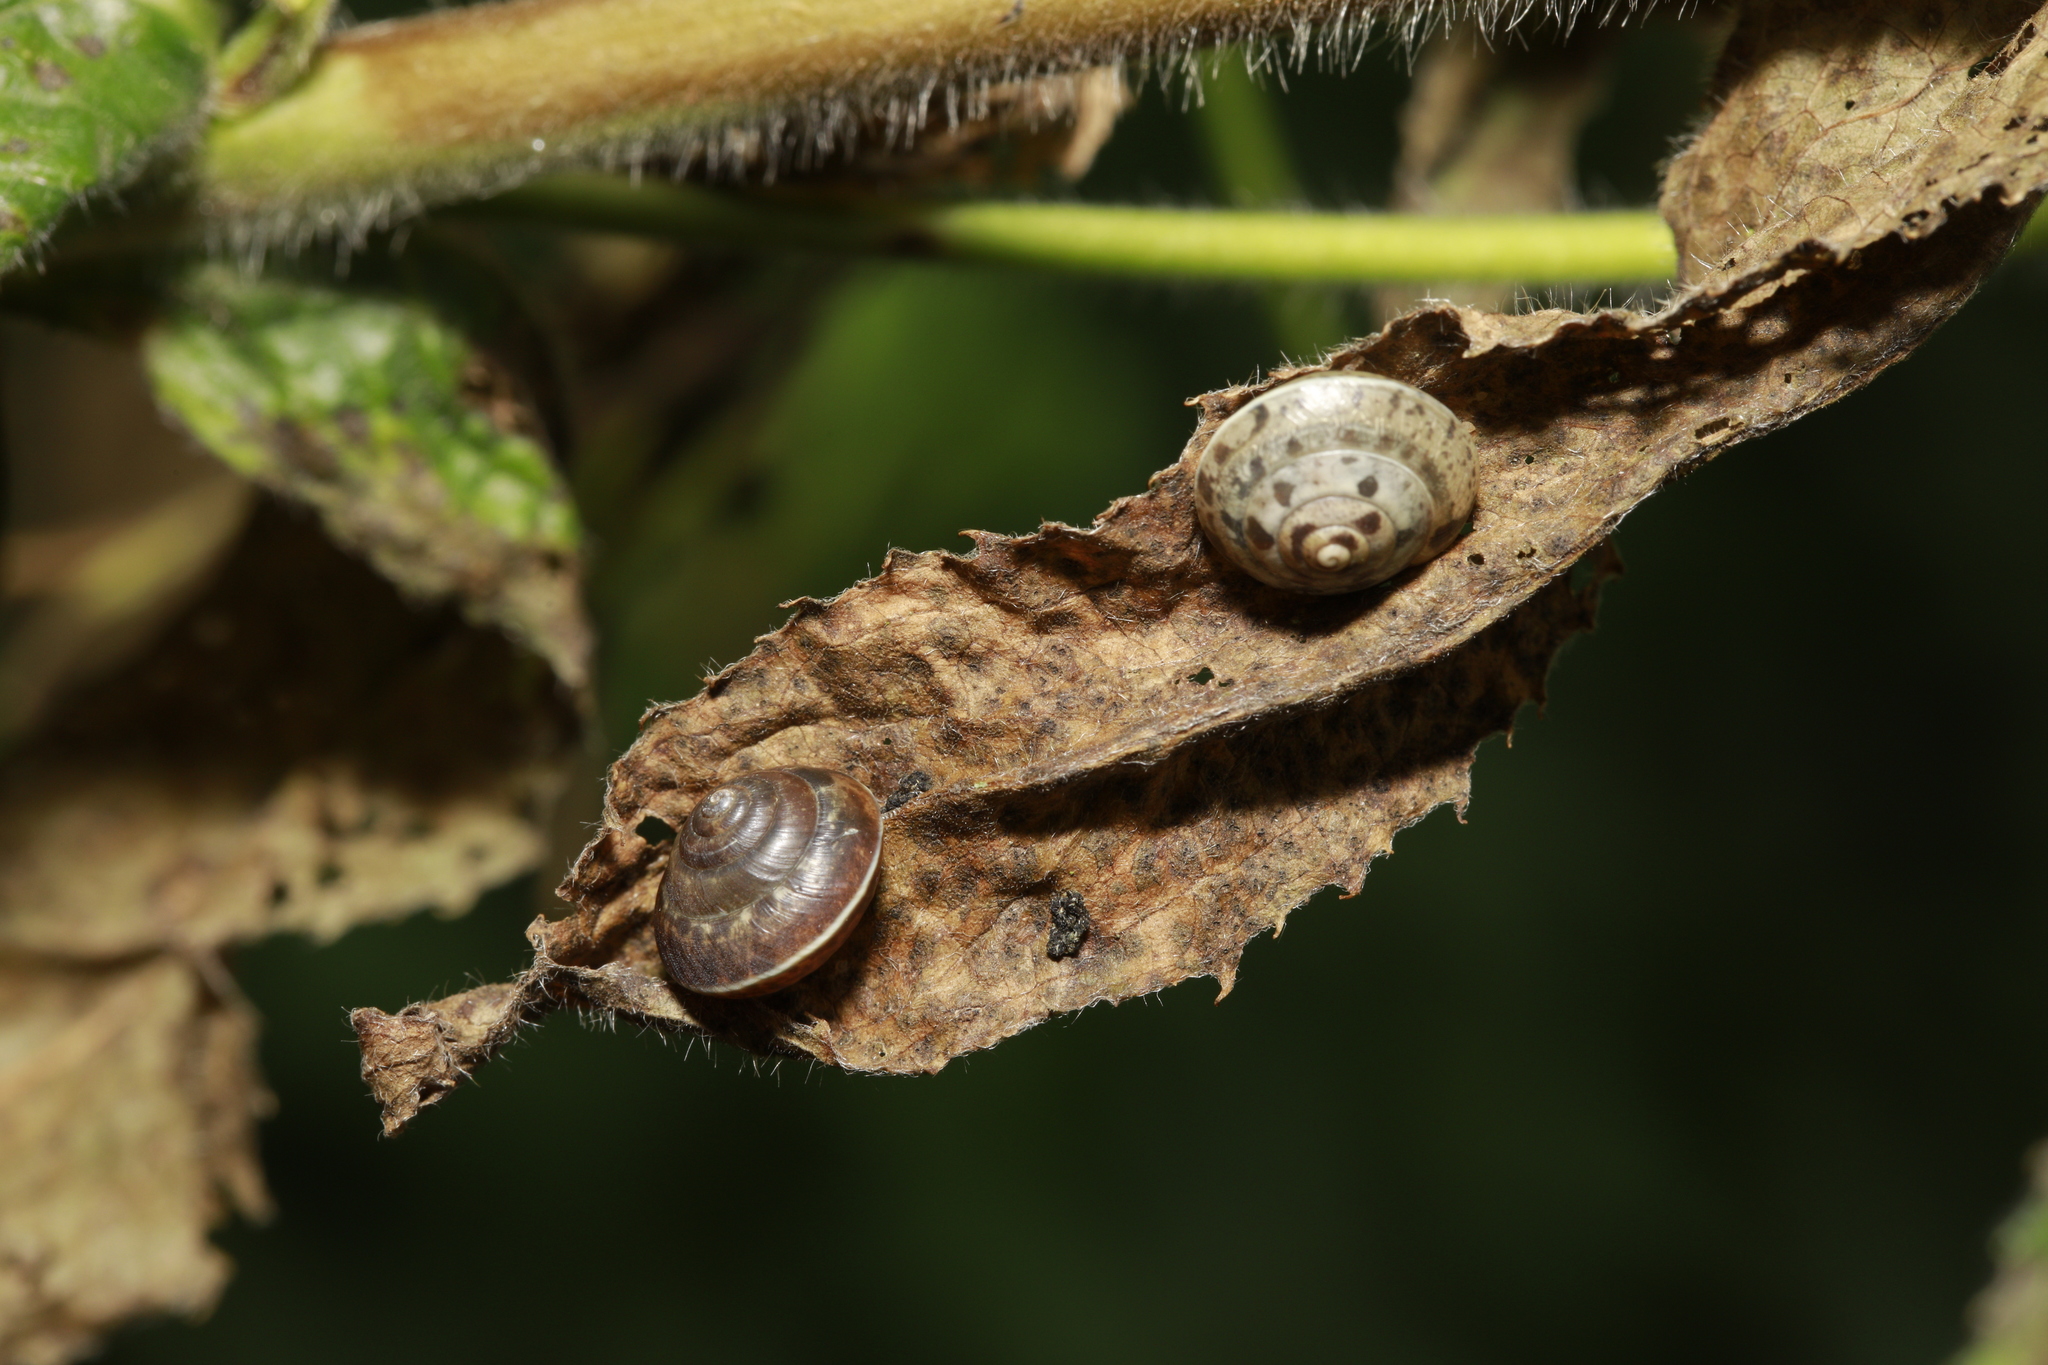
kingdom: Animalia
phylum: Mollusca
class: Gastropoda
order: Stylommatophora
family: Hygromiidae
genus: Hygromia
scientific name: Hygromia cinctella
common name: Girdled snail
